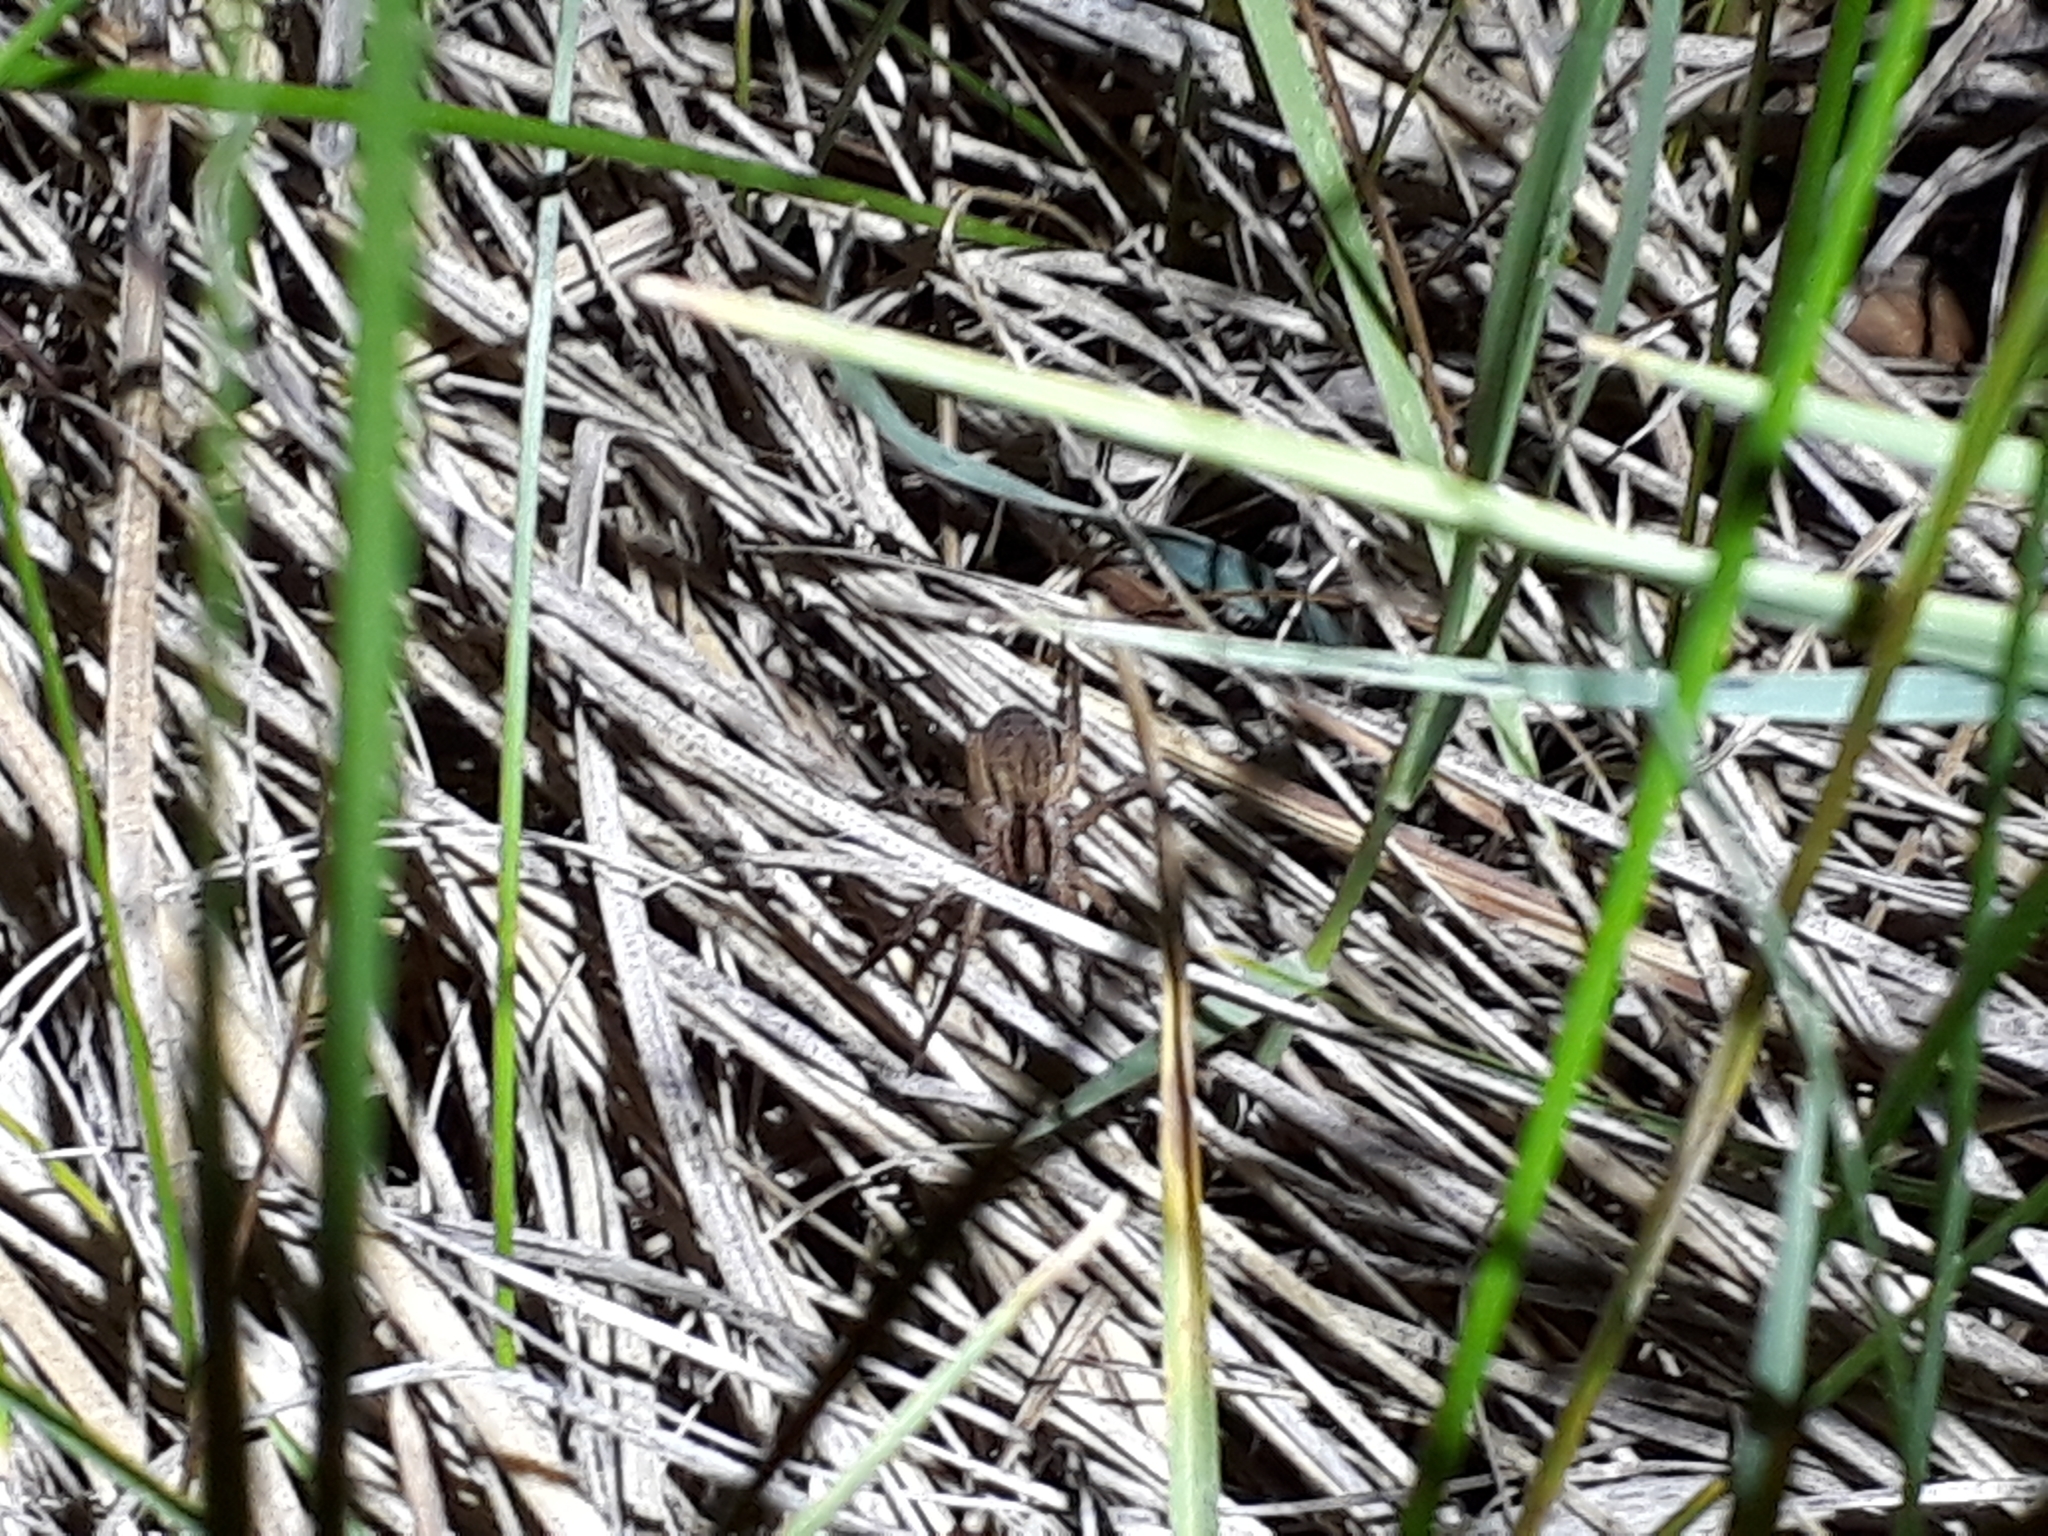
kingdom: Animalia
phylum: Arthropoda
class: Arachnida
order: Araneae
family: Lycosidae
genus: Schizocosa
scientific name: Schizocosa crassipalpata
